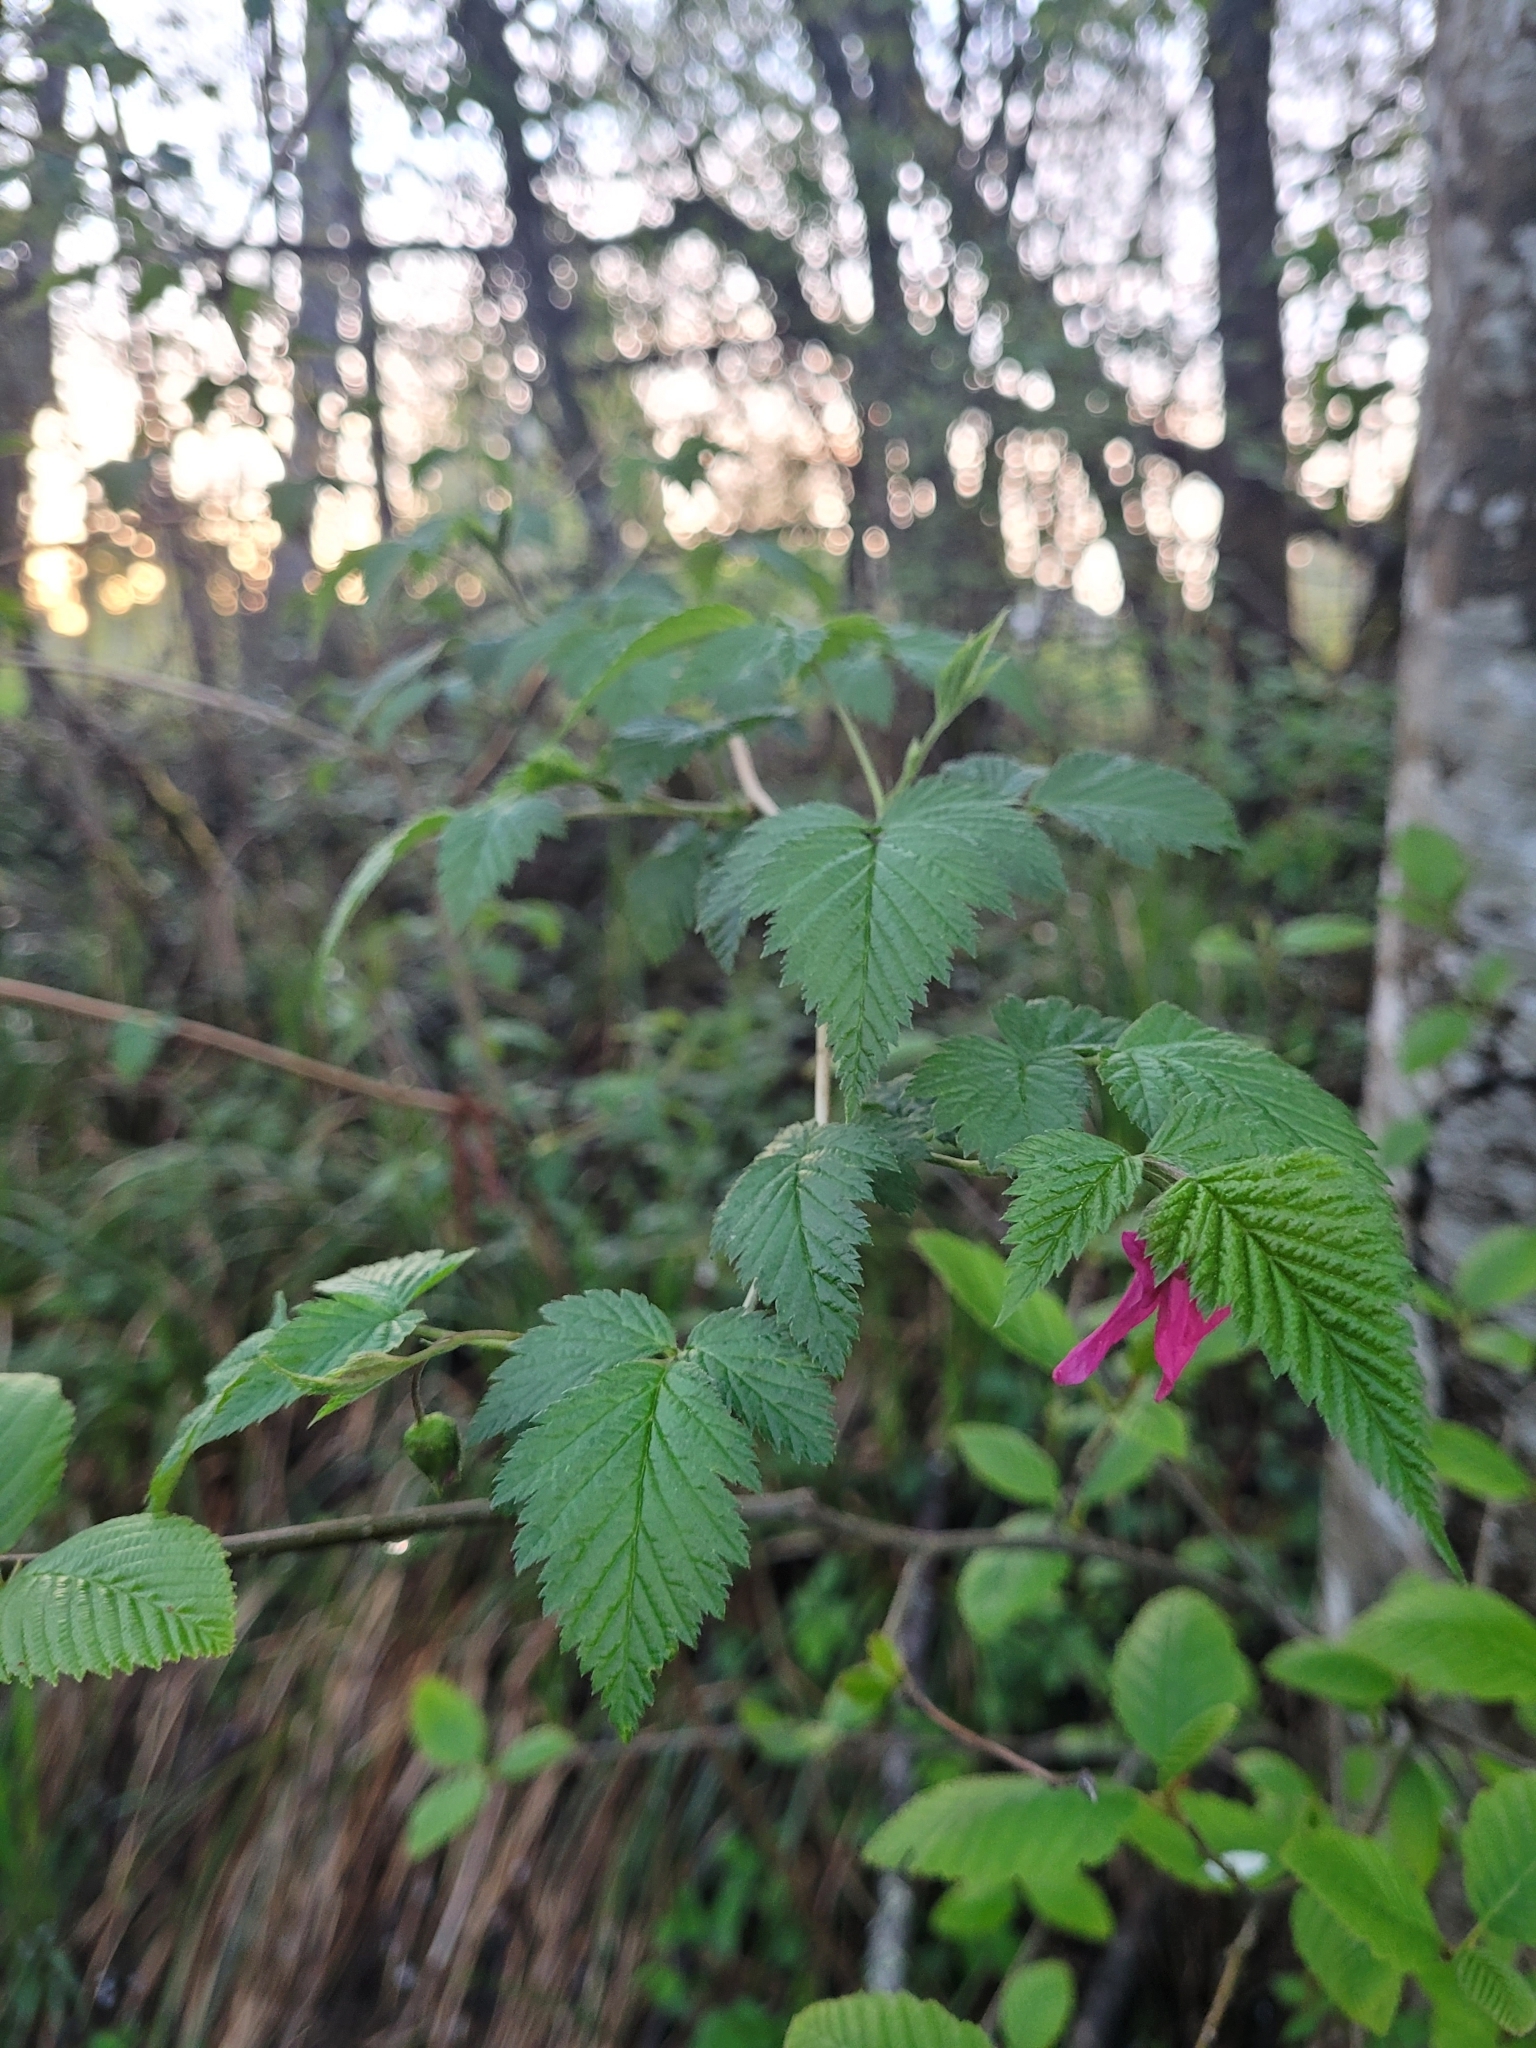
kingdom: Plantae
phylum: Tracheophyta
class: Magnoliopsida
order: Rosales
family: Rosaceae
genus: Rubus
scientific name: Rubus spectabilis
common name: Salmonberry
